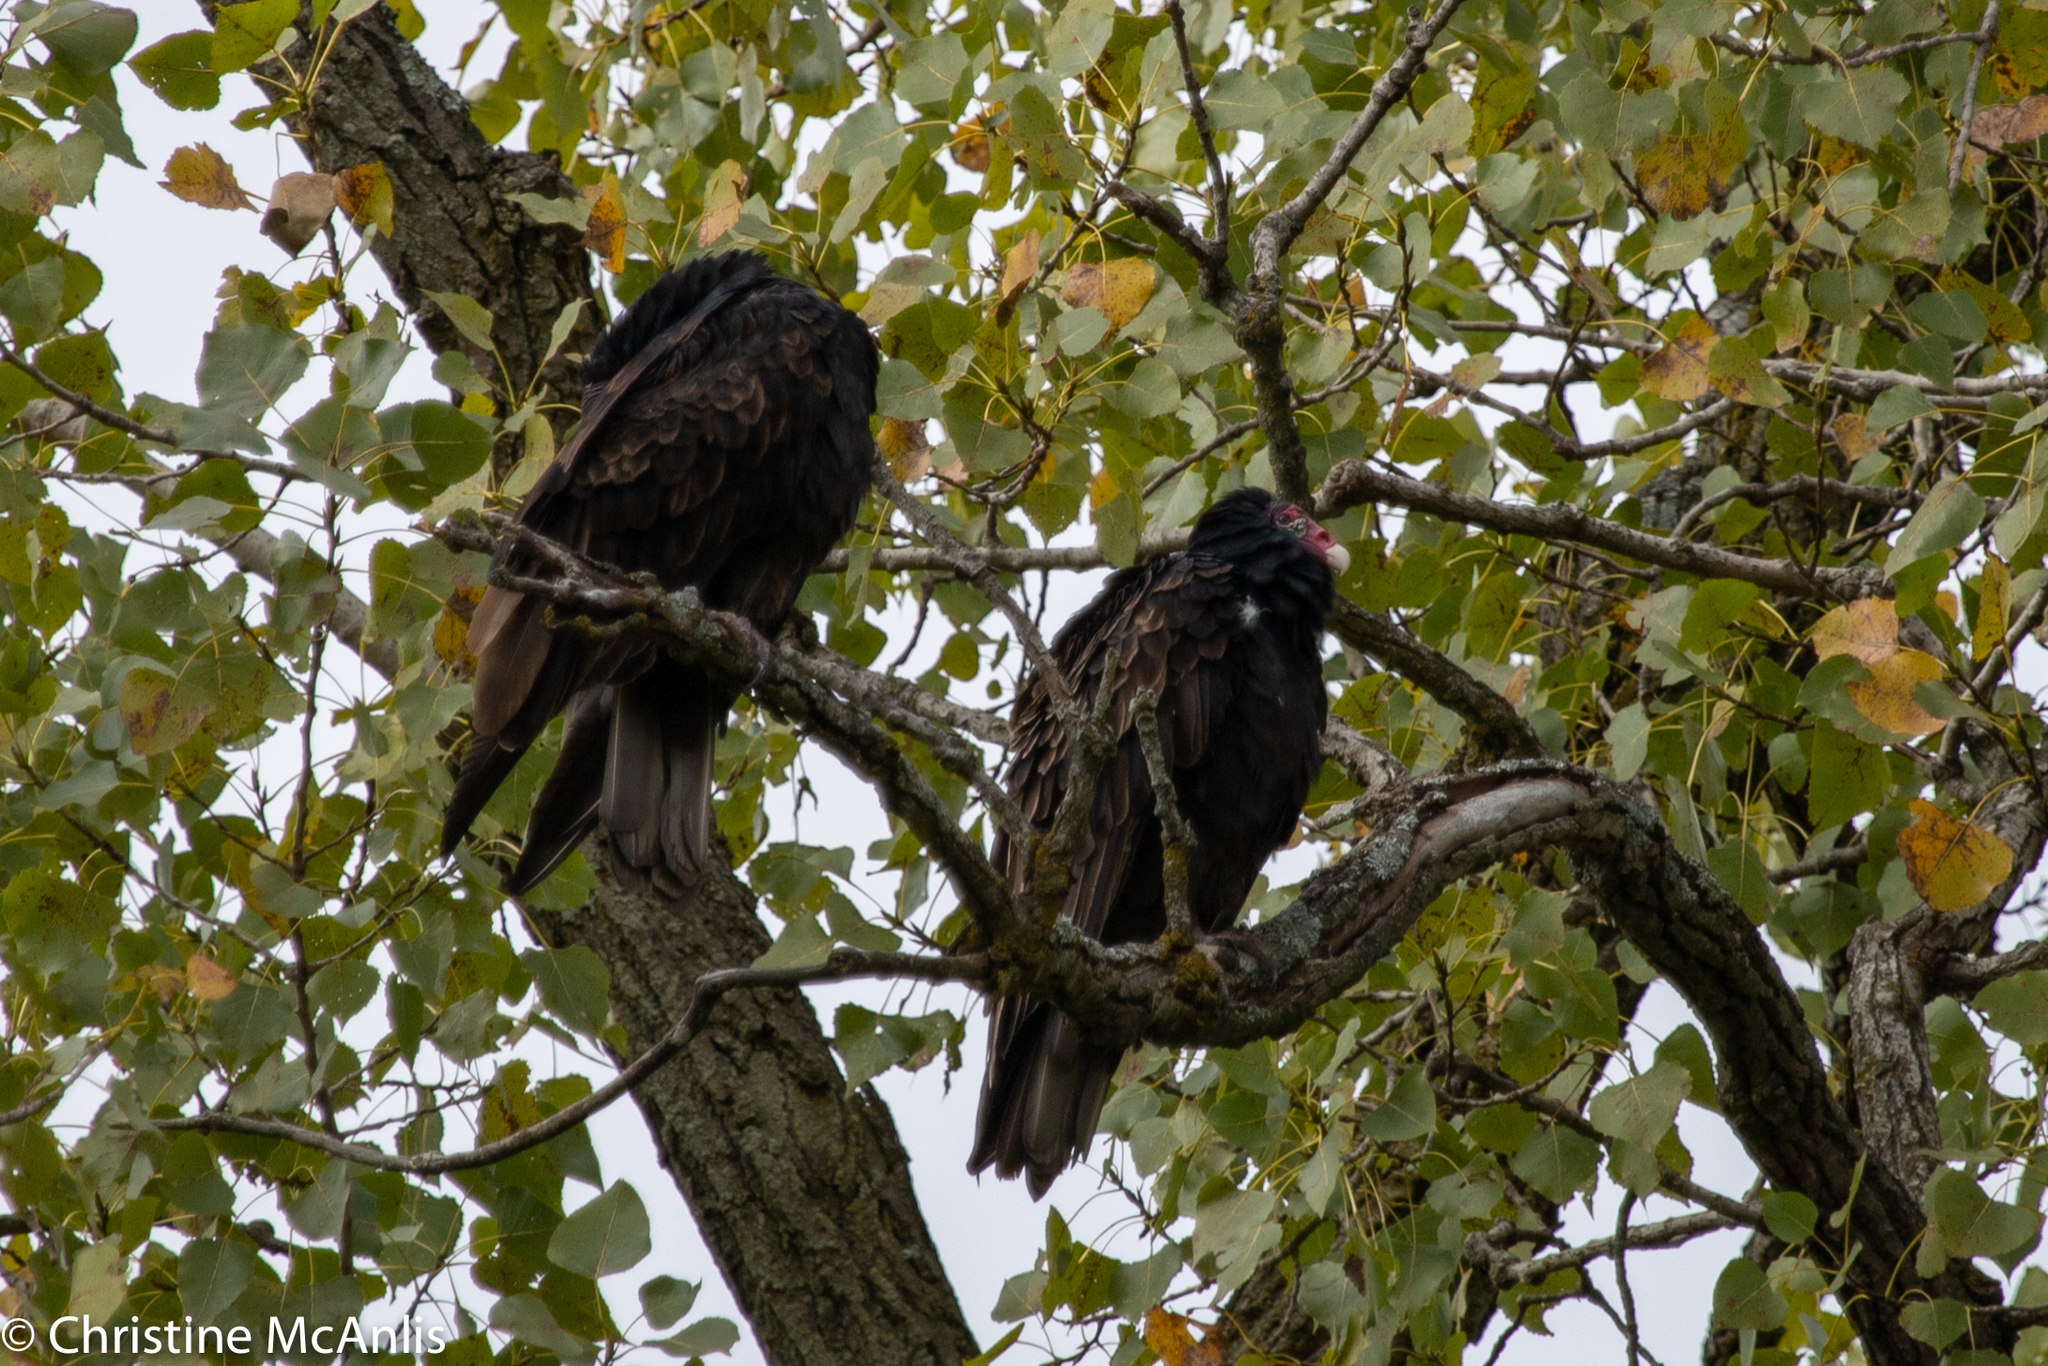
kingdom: Animalia
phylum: Chordata
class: Aves
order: Accipitriformes
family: Cathartidae
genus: Cathartes
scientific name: Cathartes aura
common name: Turkey vulture
